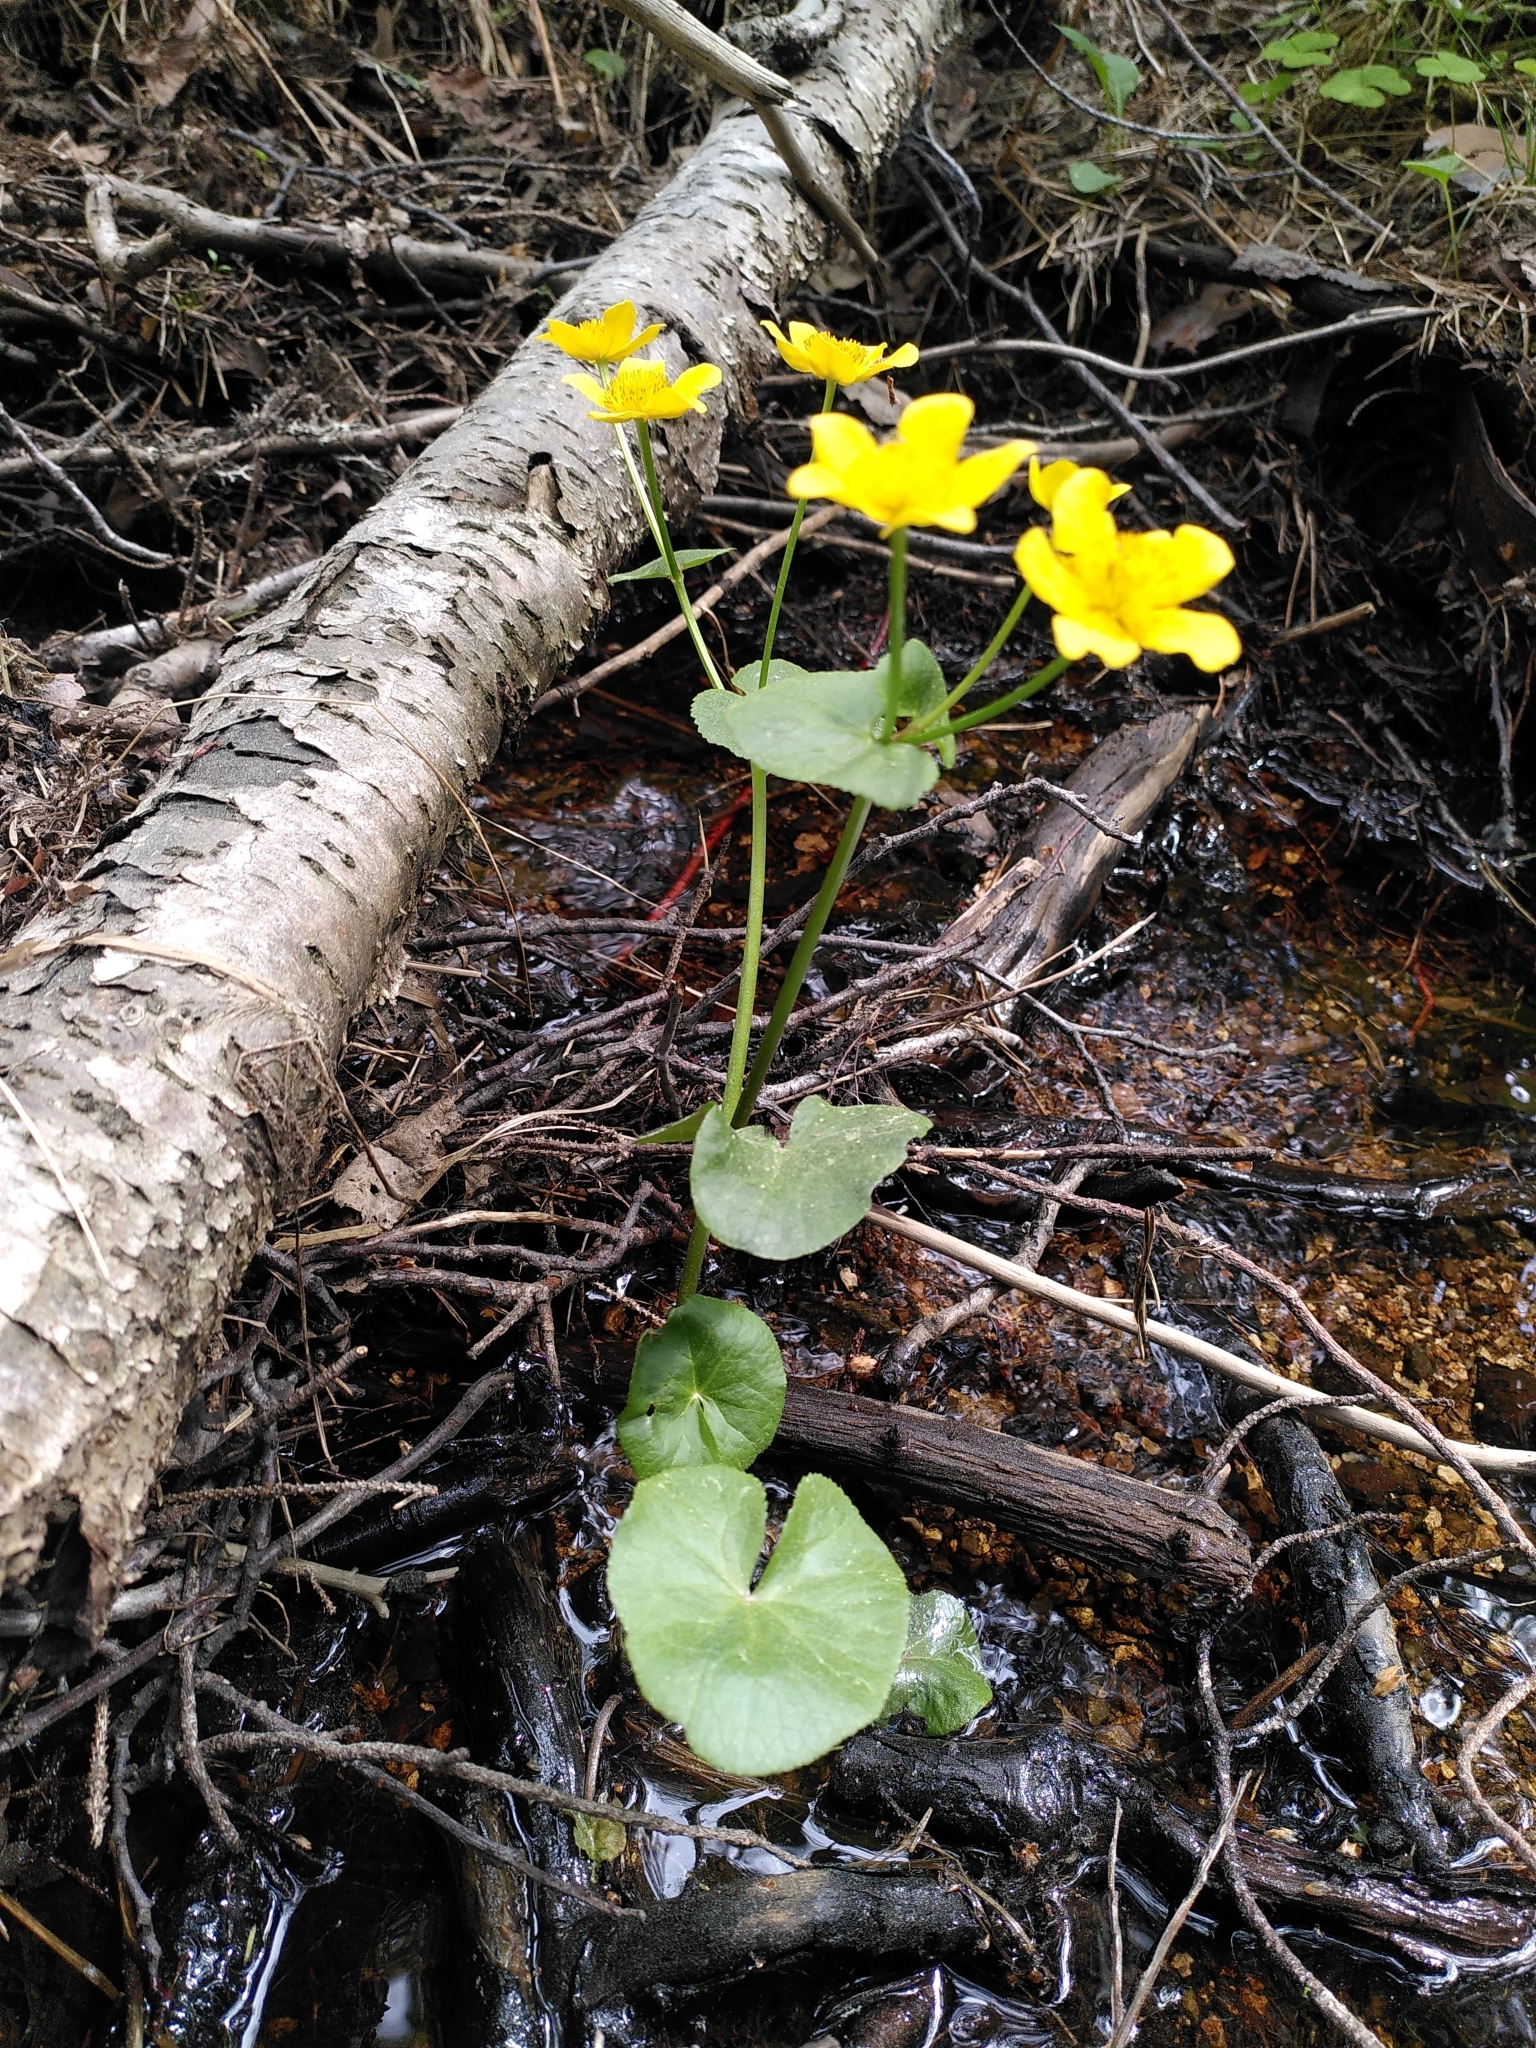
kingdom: Plantae
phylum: Tracheophyta
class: Magnoliopsida
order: Ranunculales
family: Ranunculaceae
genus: Caltha
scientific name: Caltha palustris
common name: Marsh marigold
